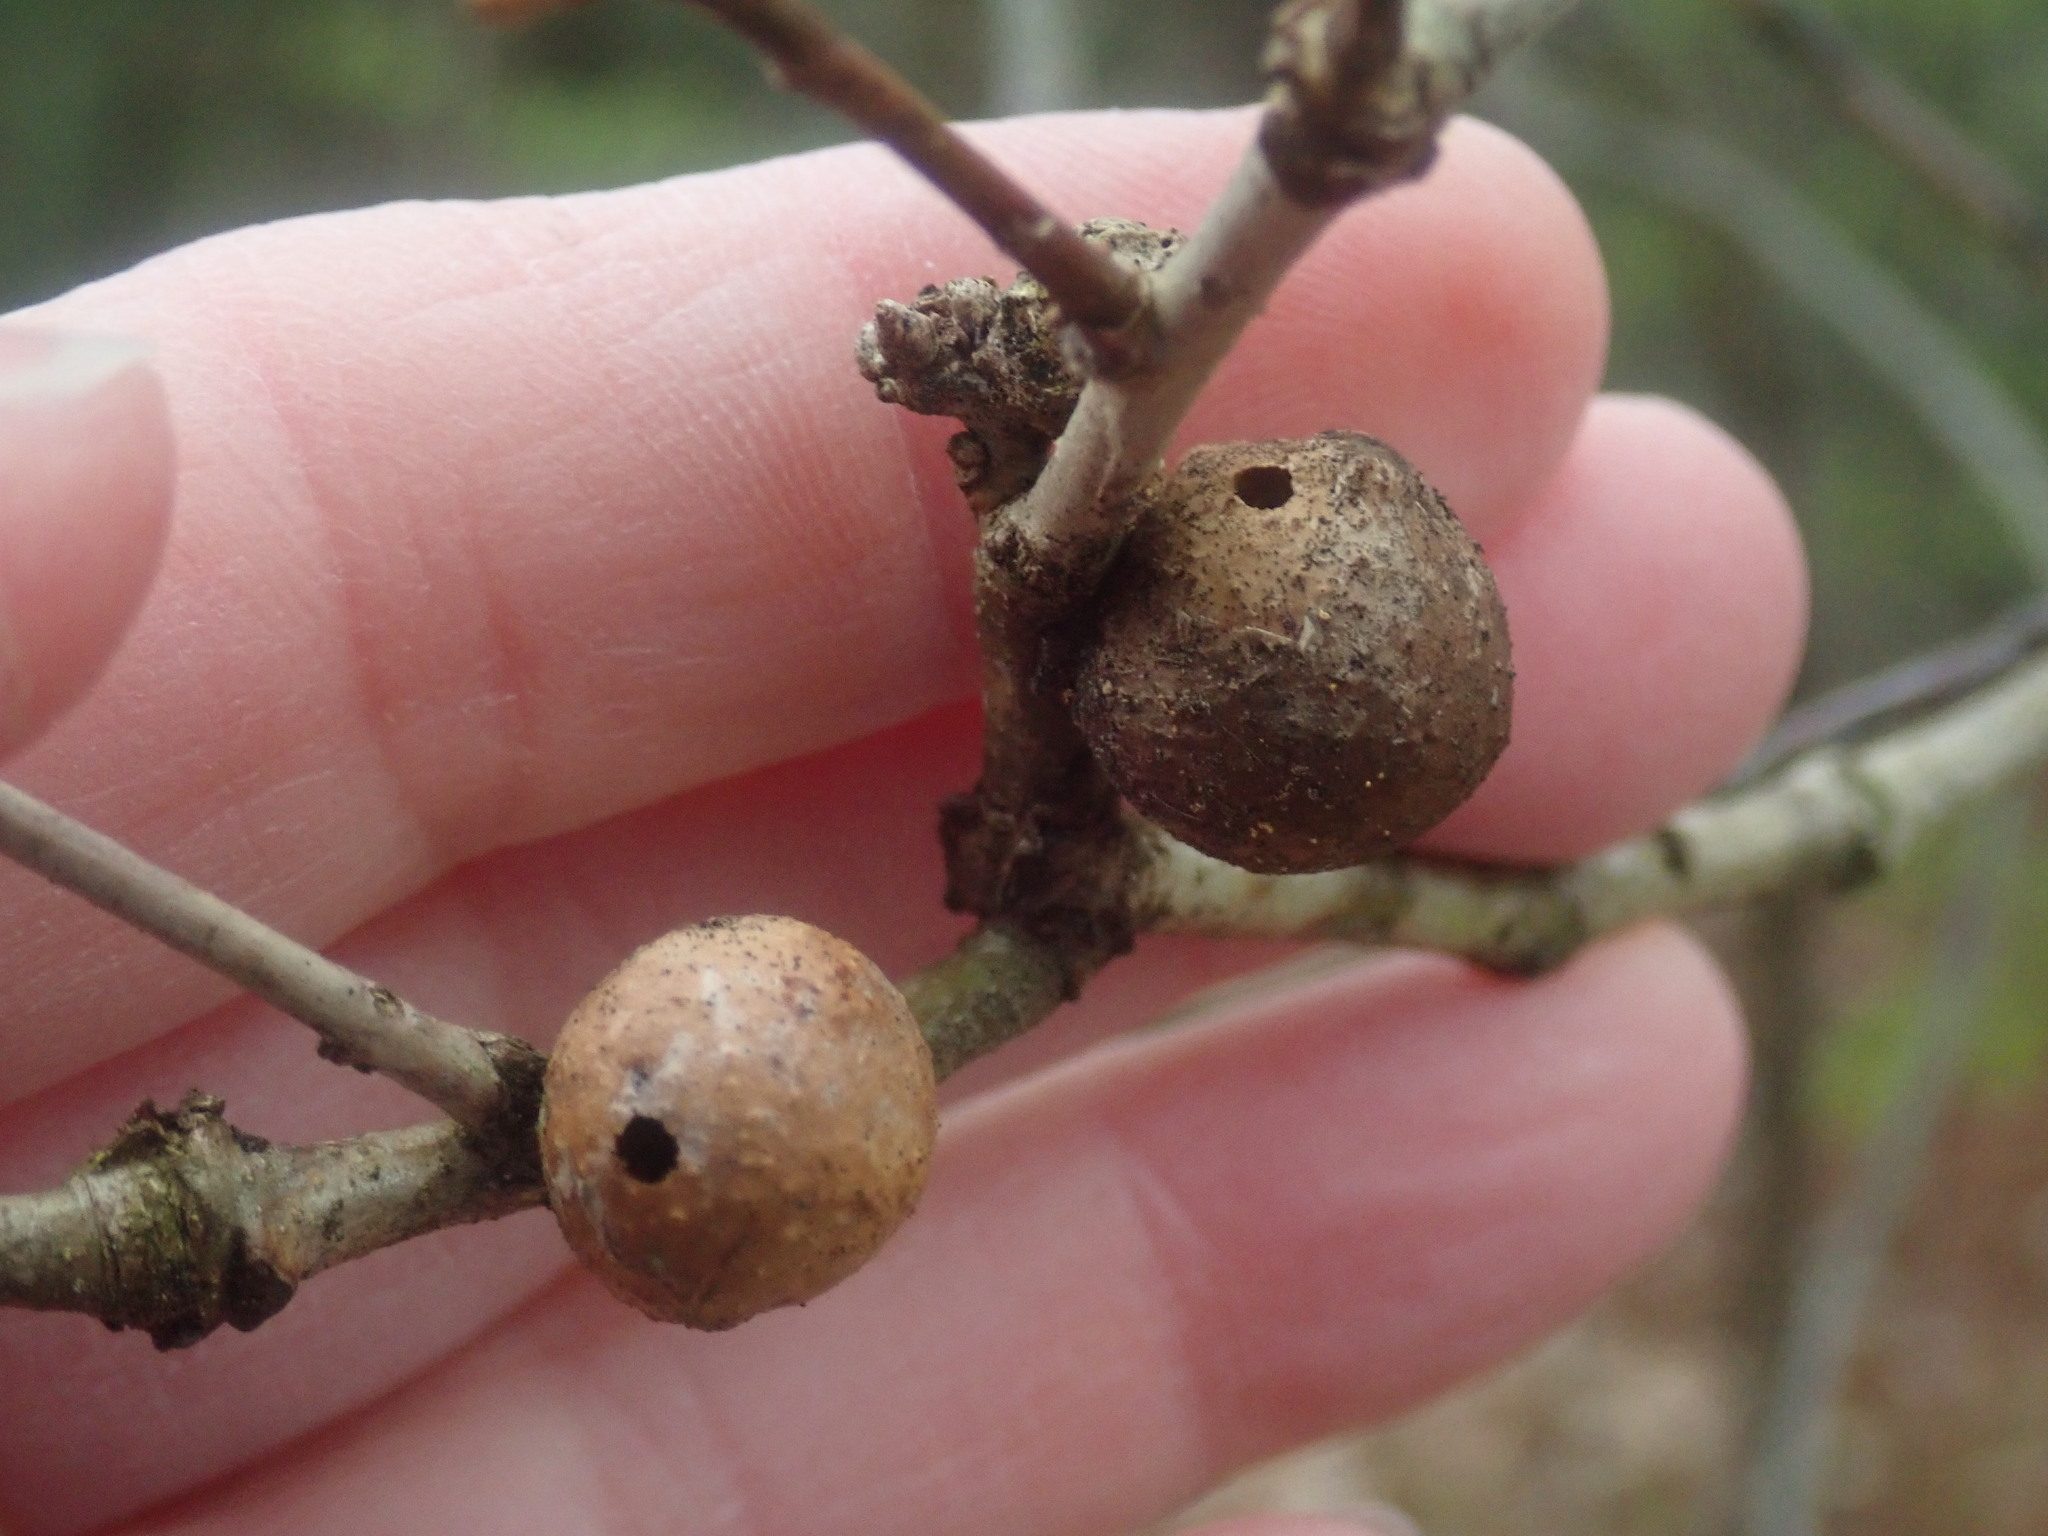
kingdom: Animalia
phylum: Arthropoda
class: Insecta
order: Hymenoptera
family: Cynipidae
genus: Disholcaspis
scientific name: Disholcaspis quercusglobulus
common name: Round bullet gall wasp
